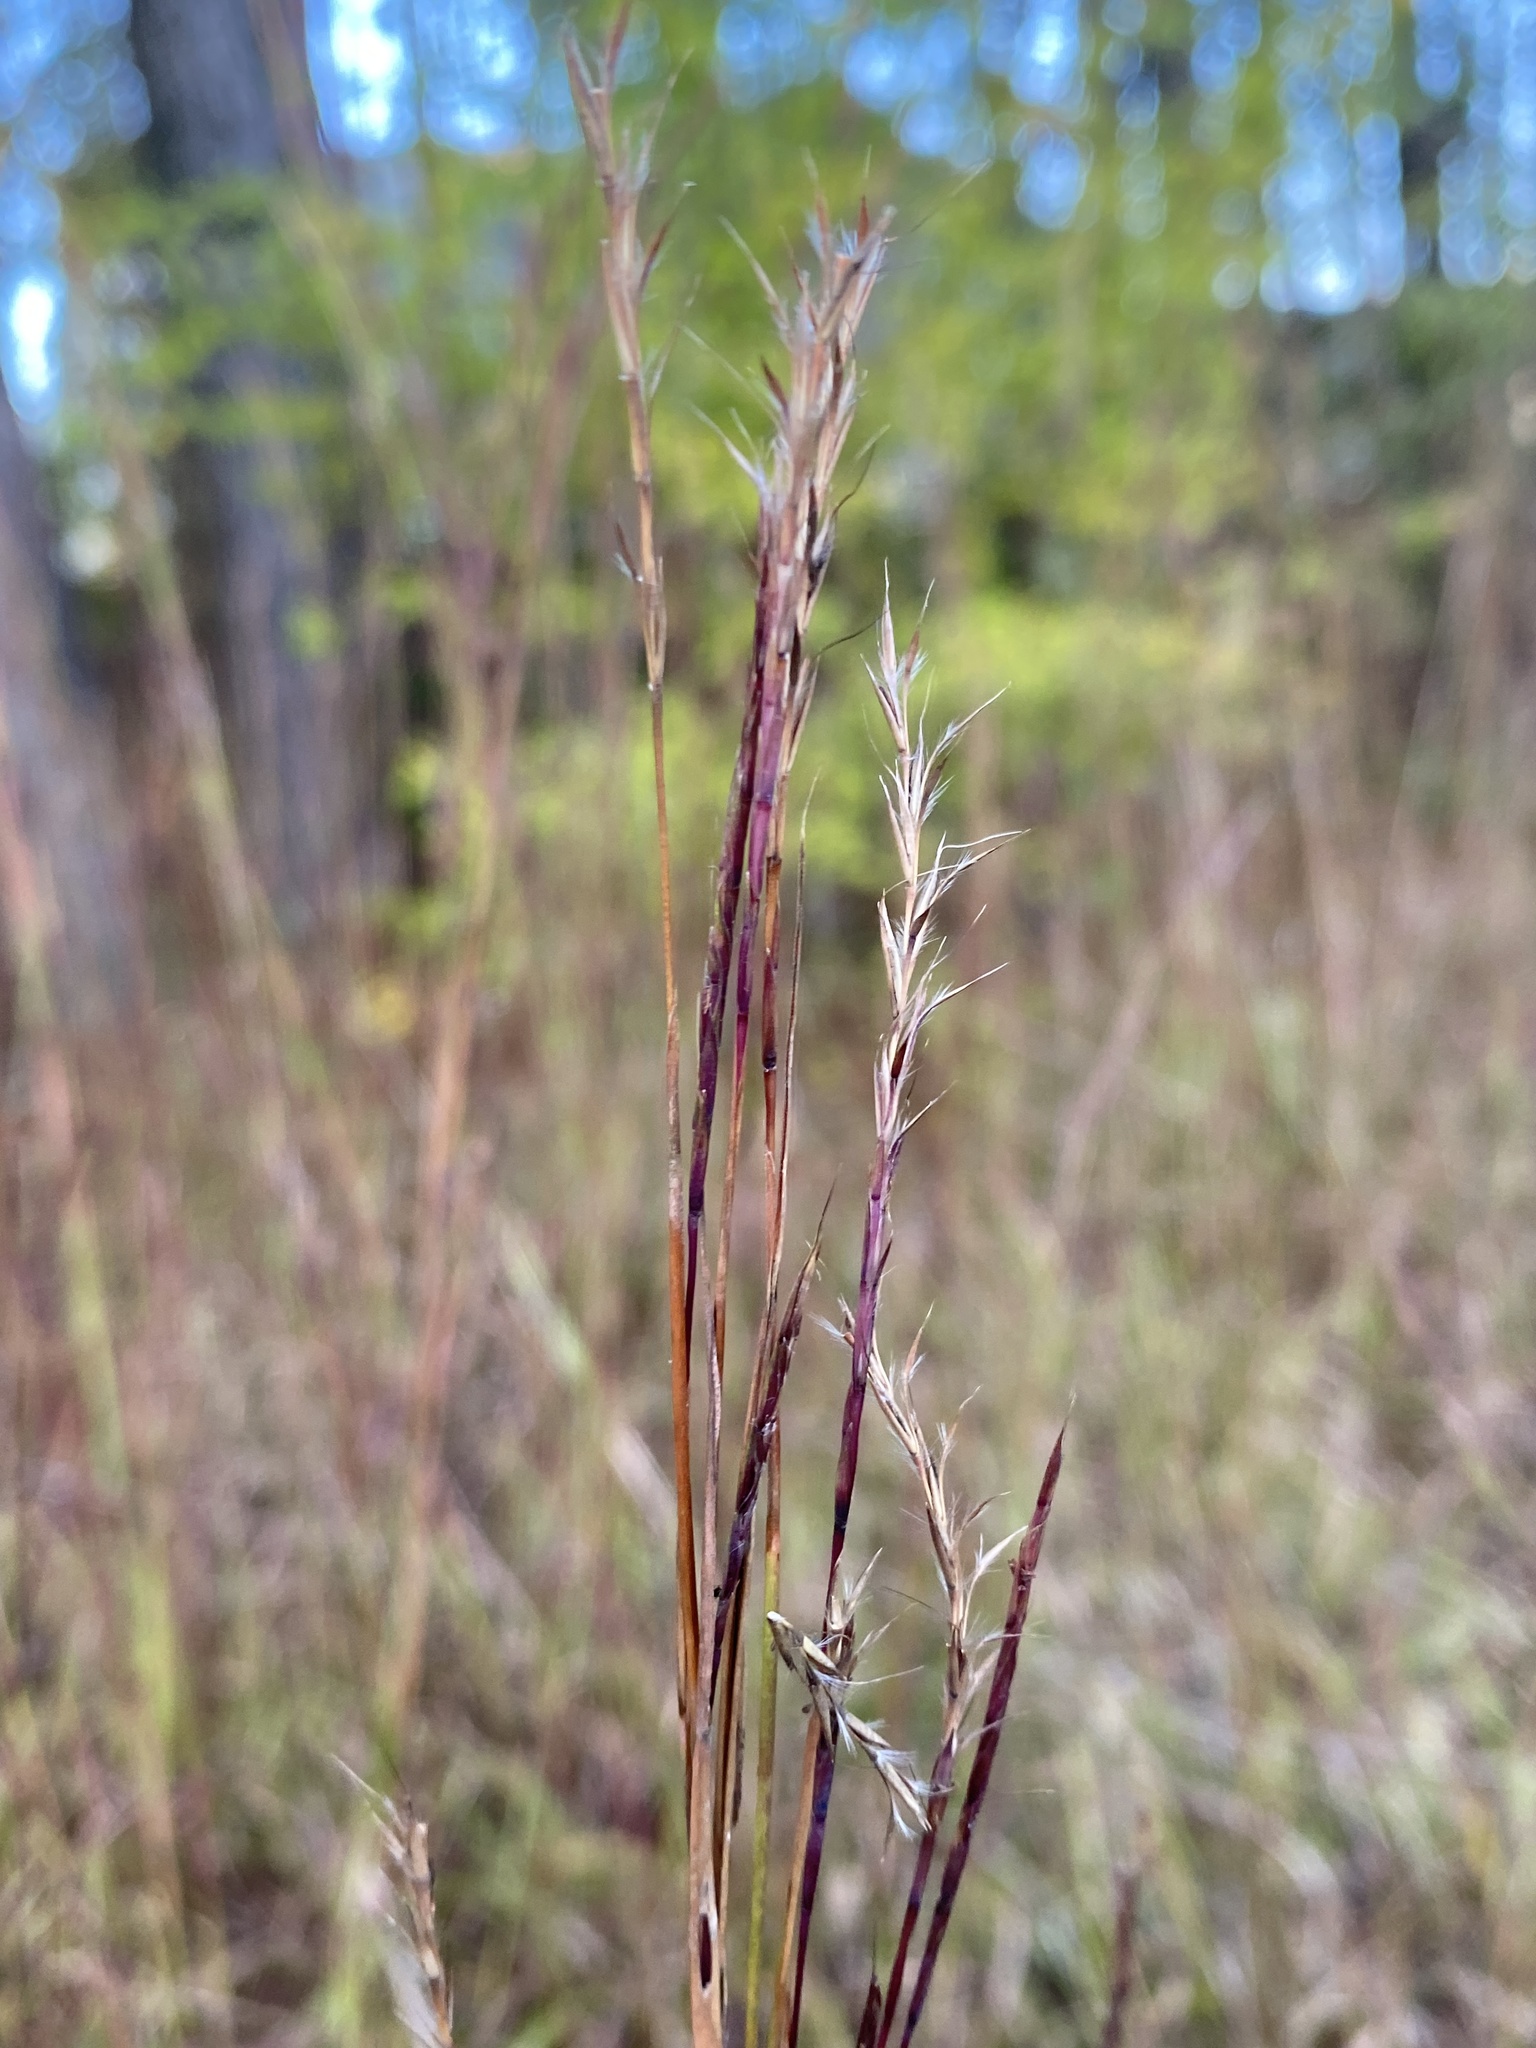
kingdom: Plantae
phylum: Tracheophyta
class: Liliopsida
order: Poales
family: Poaceae
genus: Schizachyrium
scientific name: Schizachyrium scoparium
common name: Little bluestem
